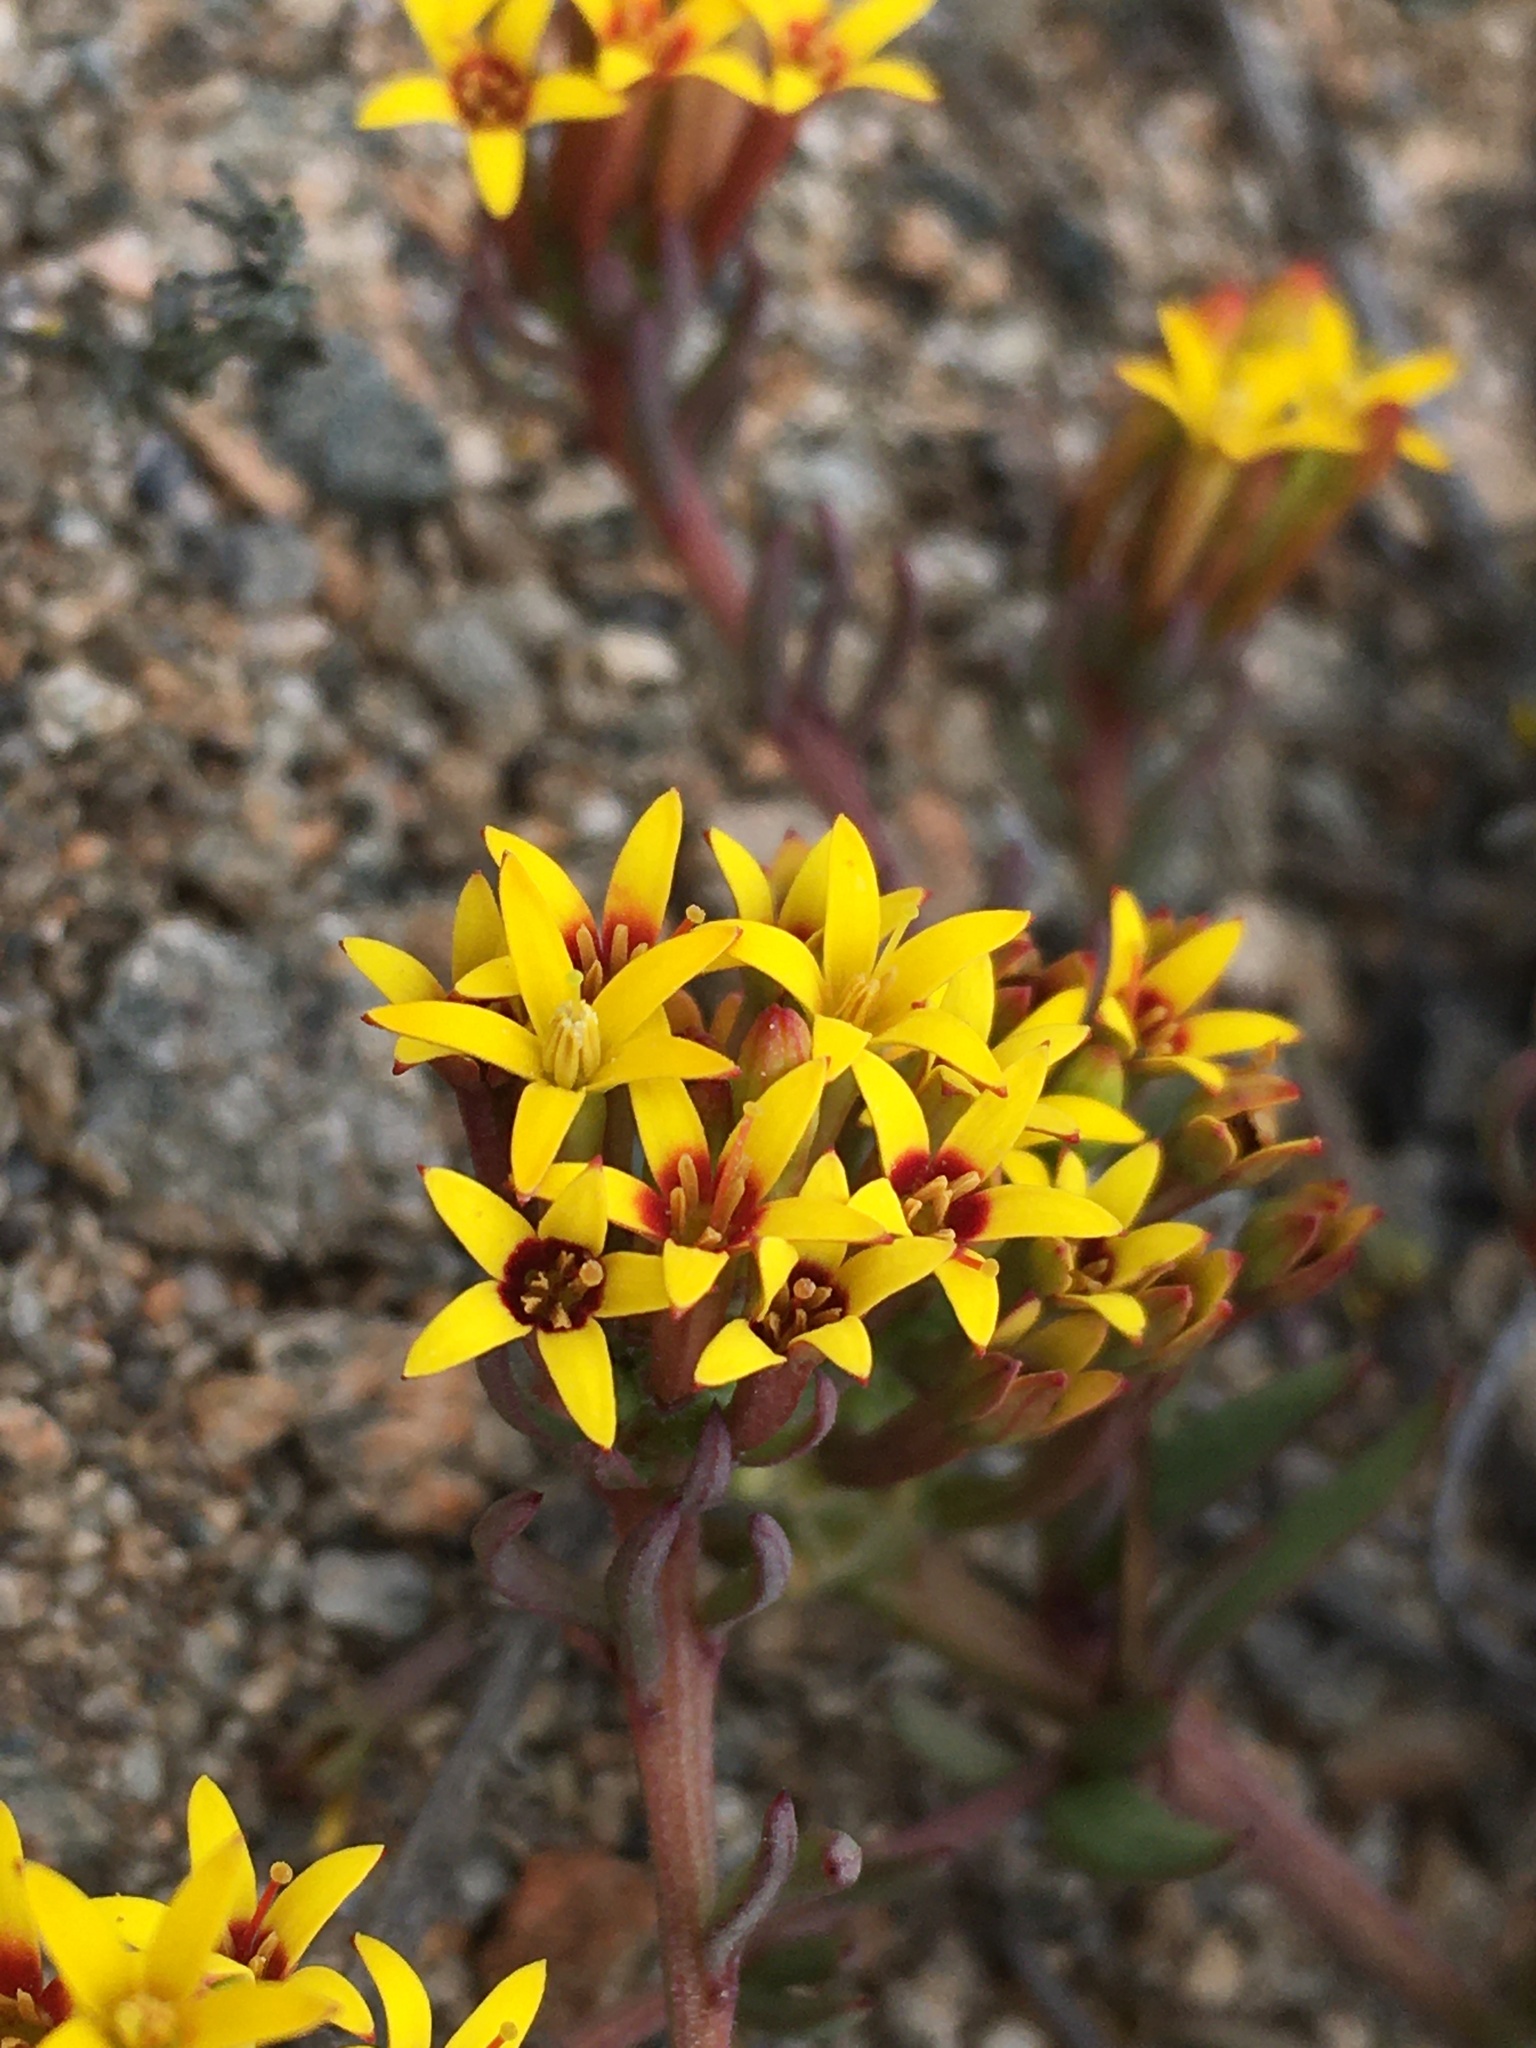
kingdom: Plantae
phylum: Tracheophyta
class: Magnoliopsida
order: Santalales
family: Schoepfiaceae
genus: Quinchamalium
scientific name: Quinchamalium chilense
